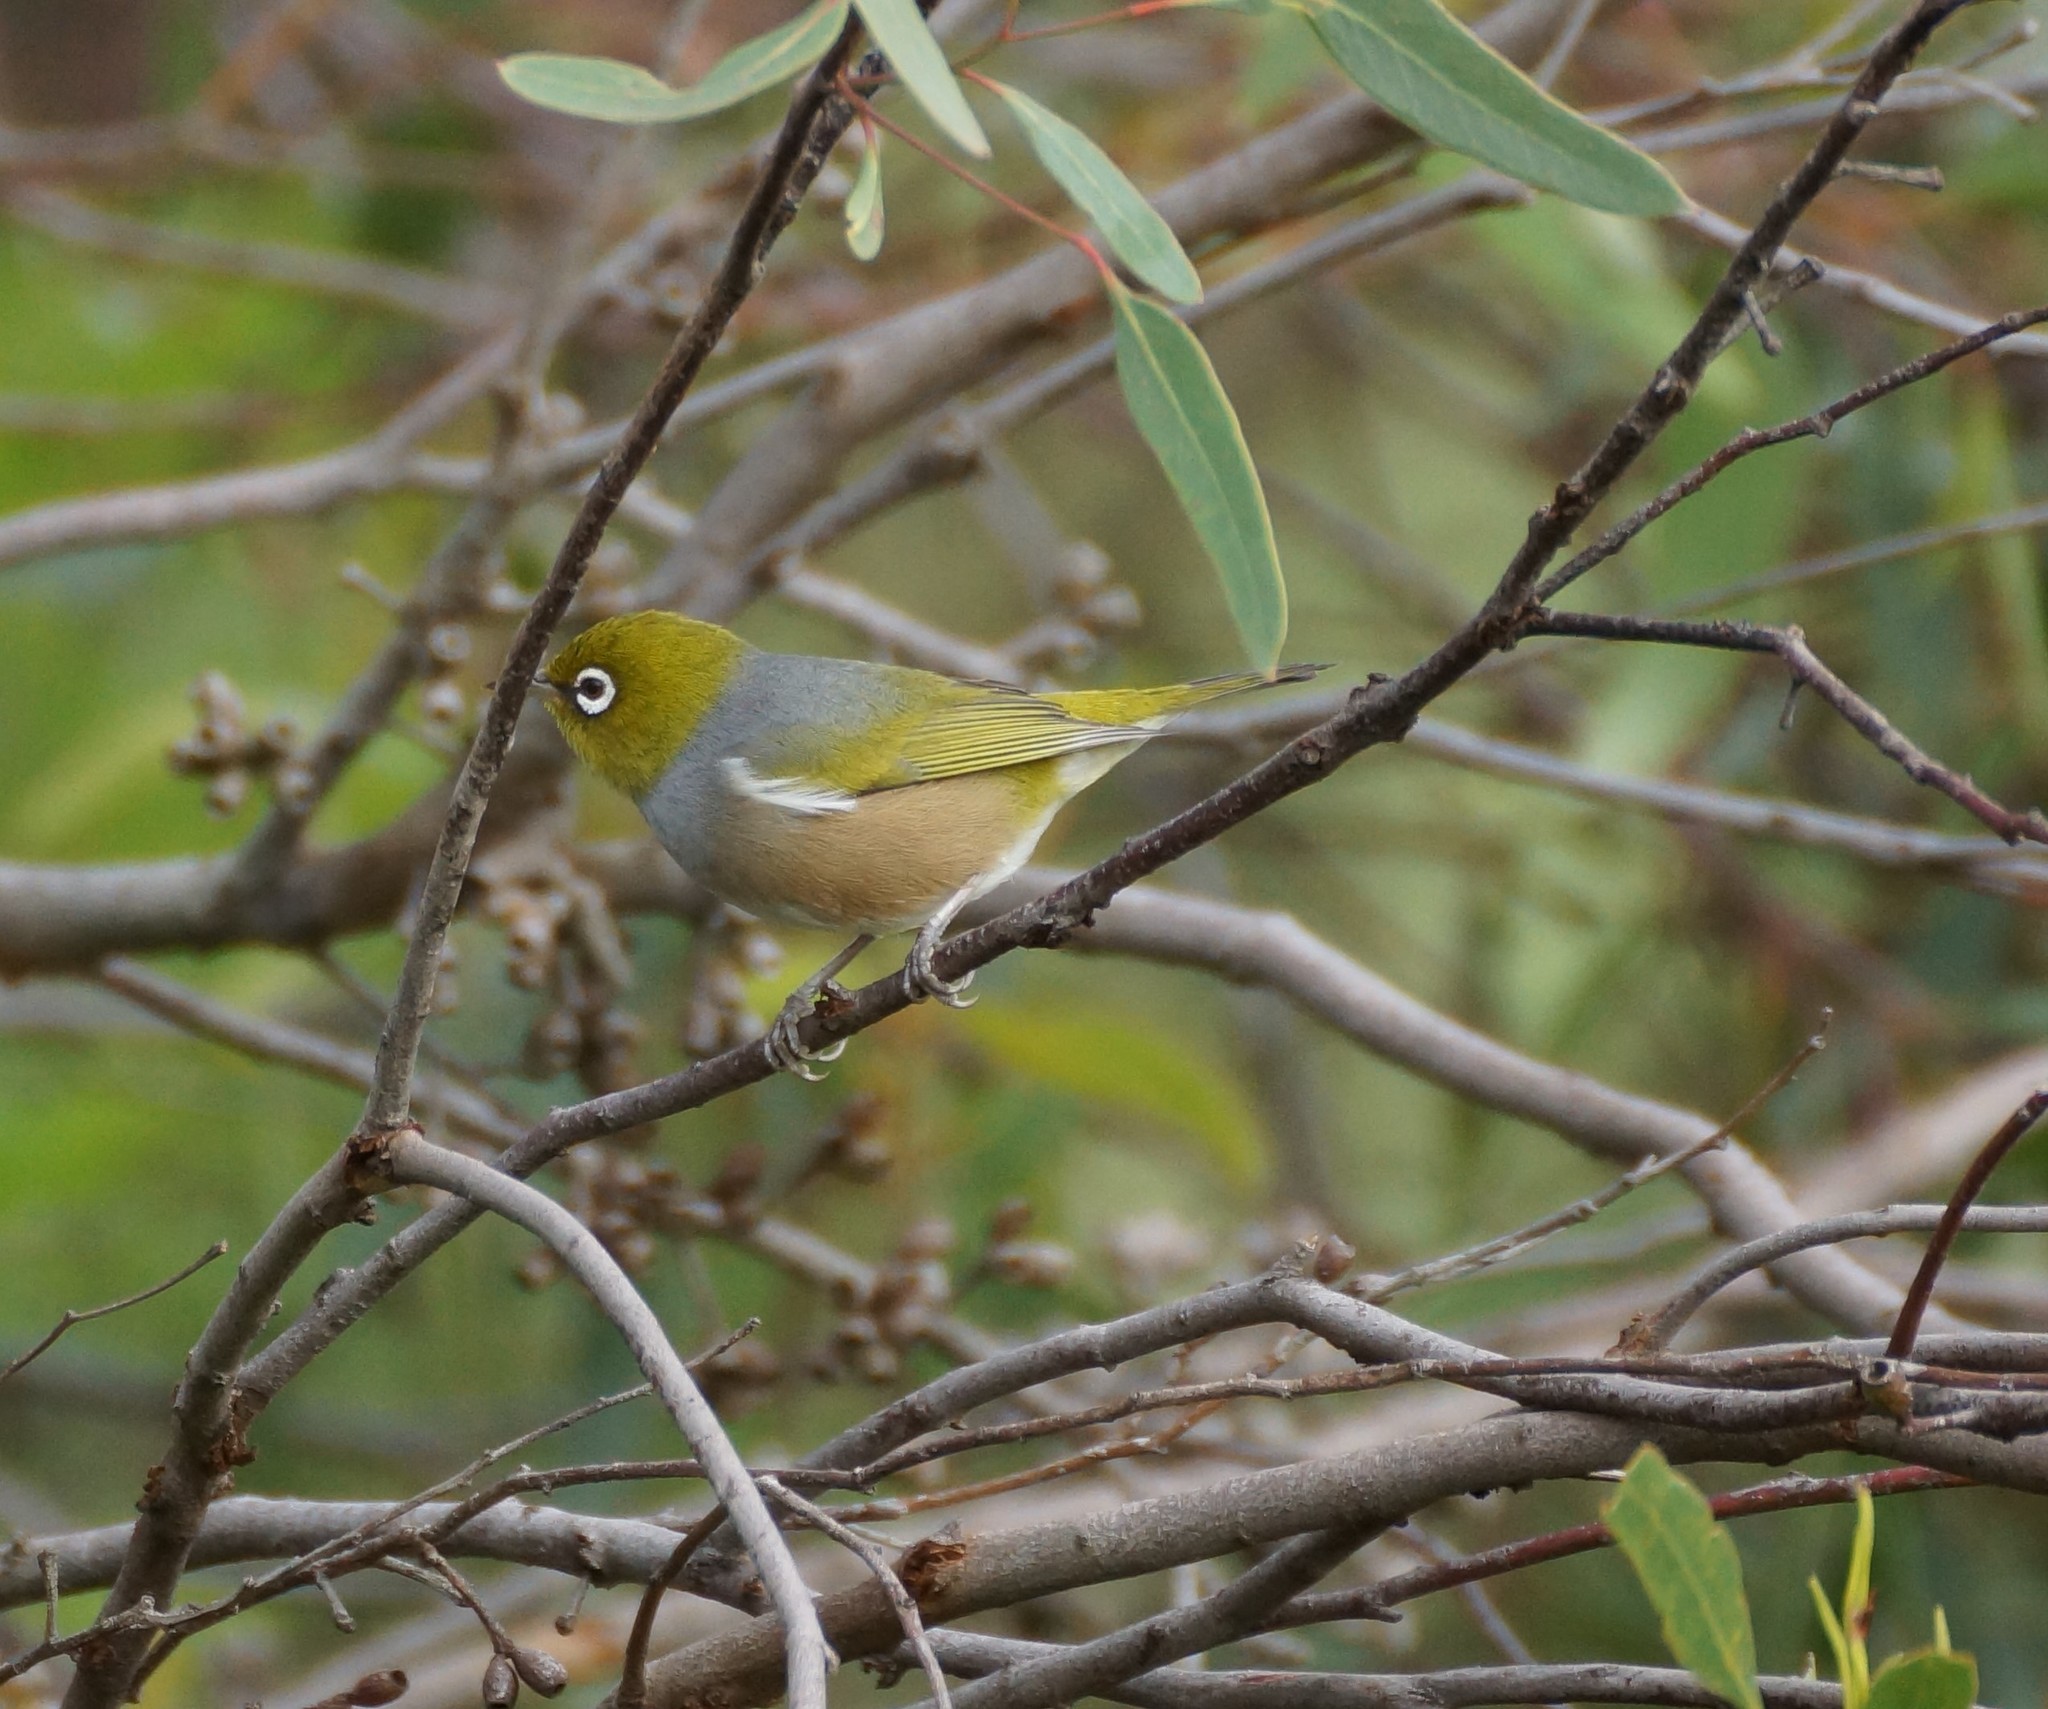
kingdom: Animalia
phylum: Chordata
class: Aves
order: Passeriformes
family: Zosteropidae
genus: Zosterops
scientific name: Zosterops lateralis
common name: Silvereye
